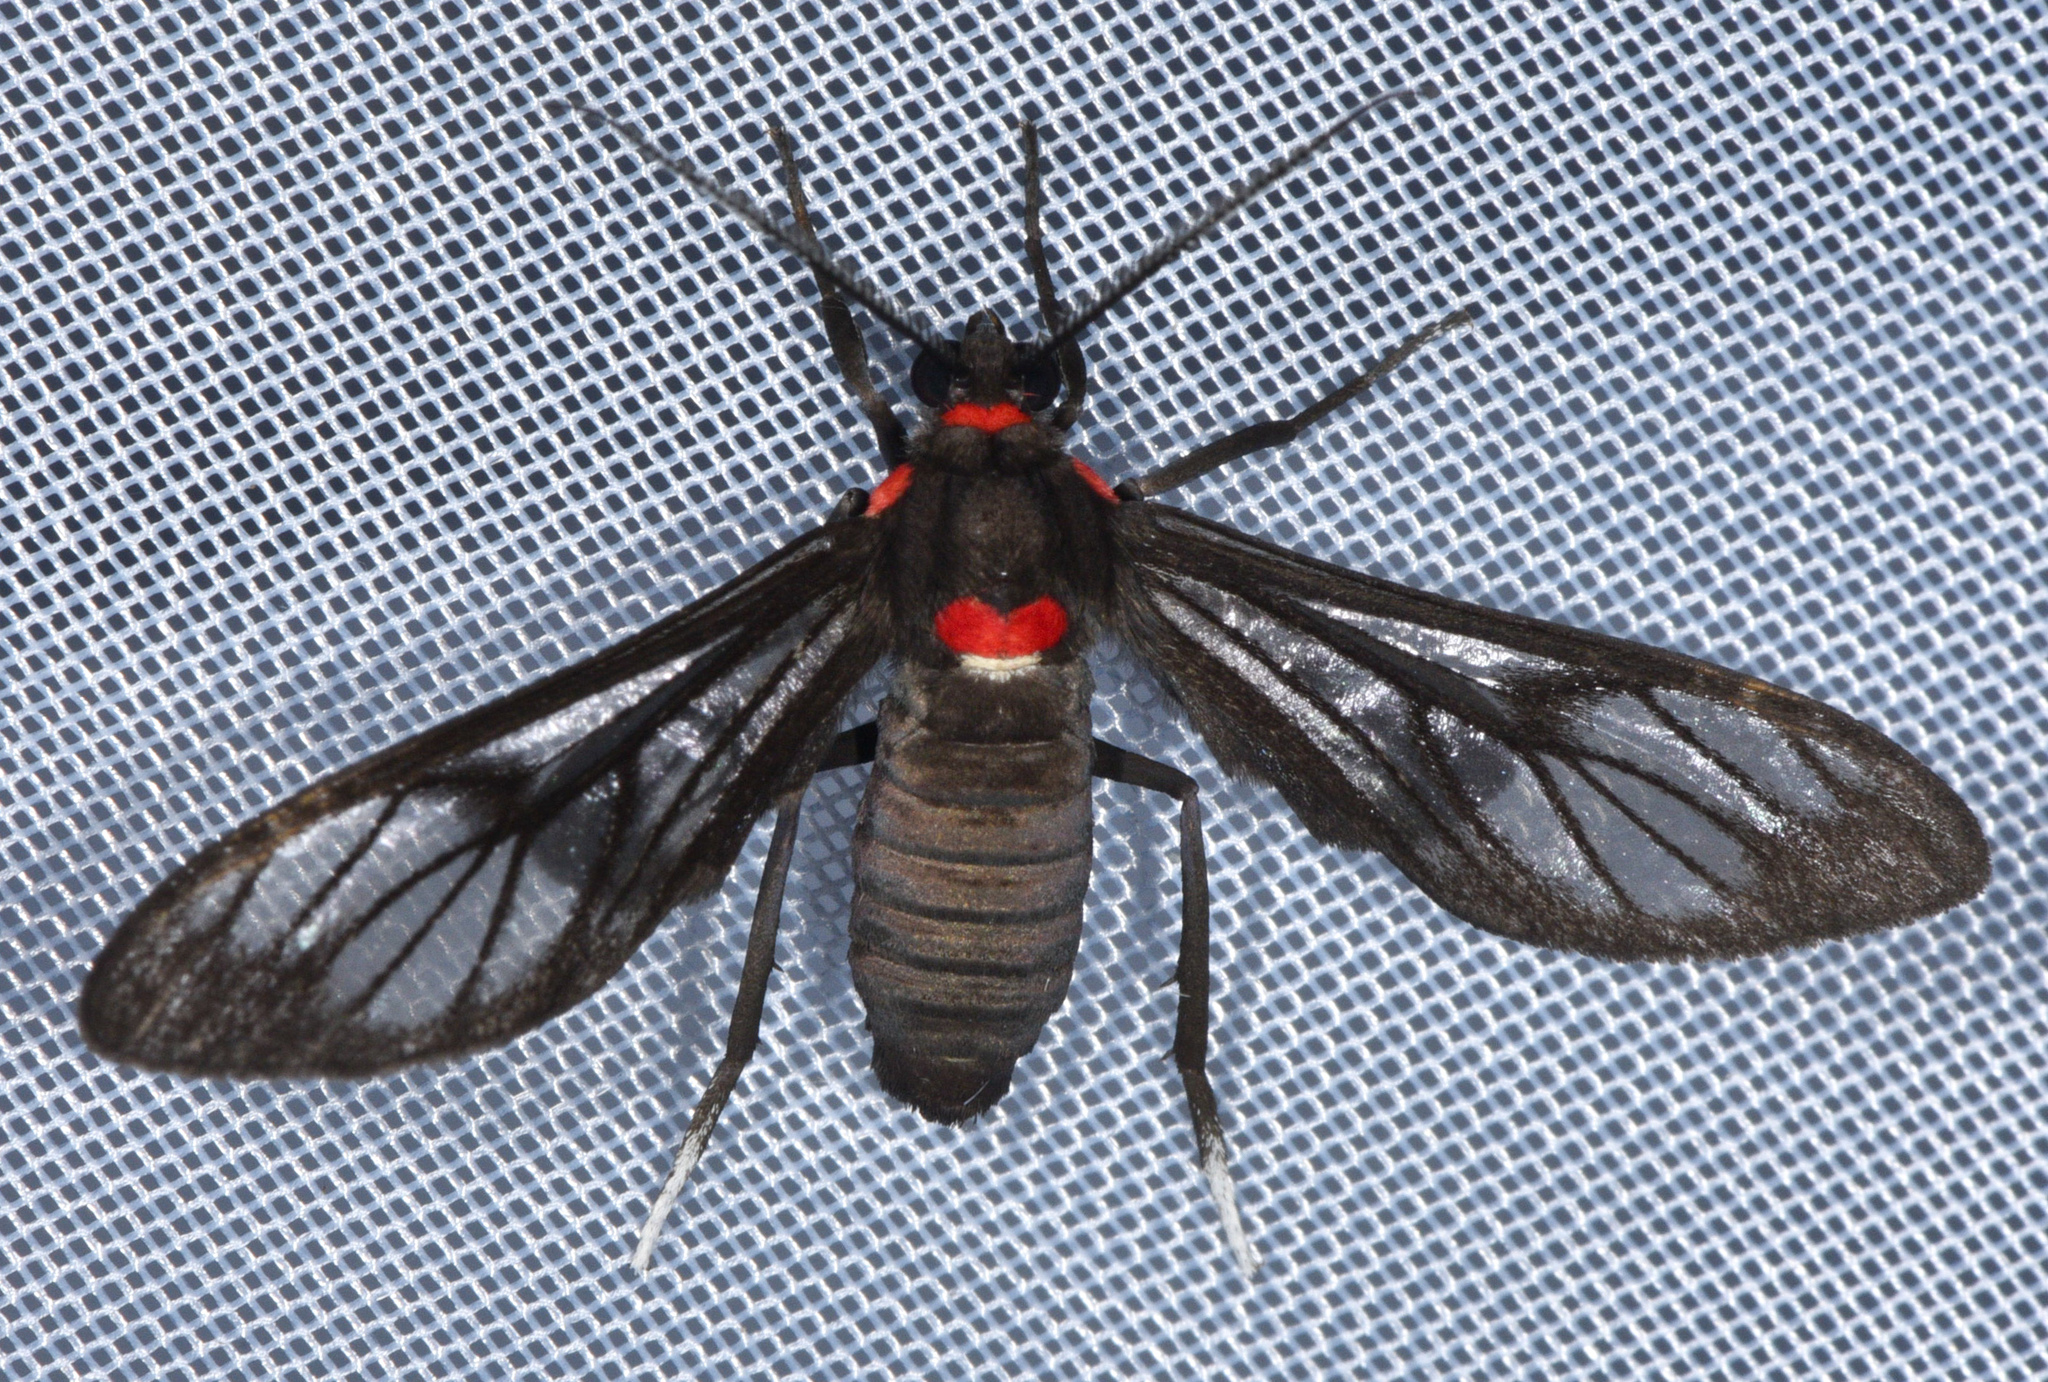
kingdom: Animalia
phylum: Arthropoda
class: Insecta
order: Lepidoptera
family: Erebidae
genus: Saurita
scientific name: Saurita phoenicosticta
